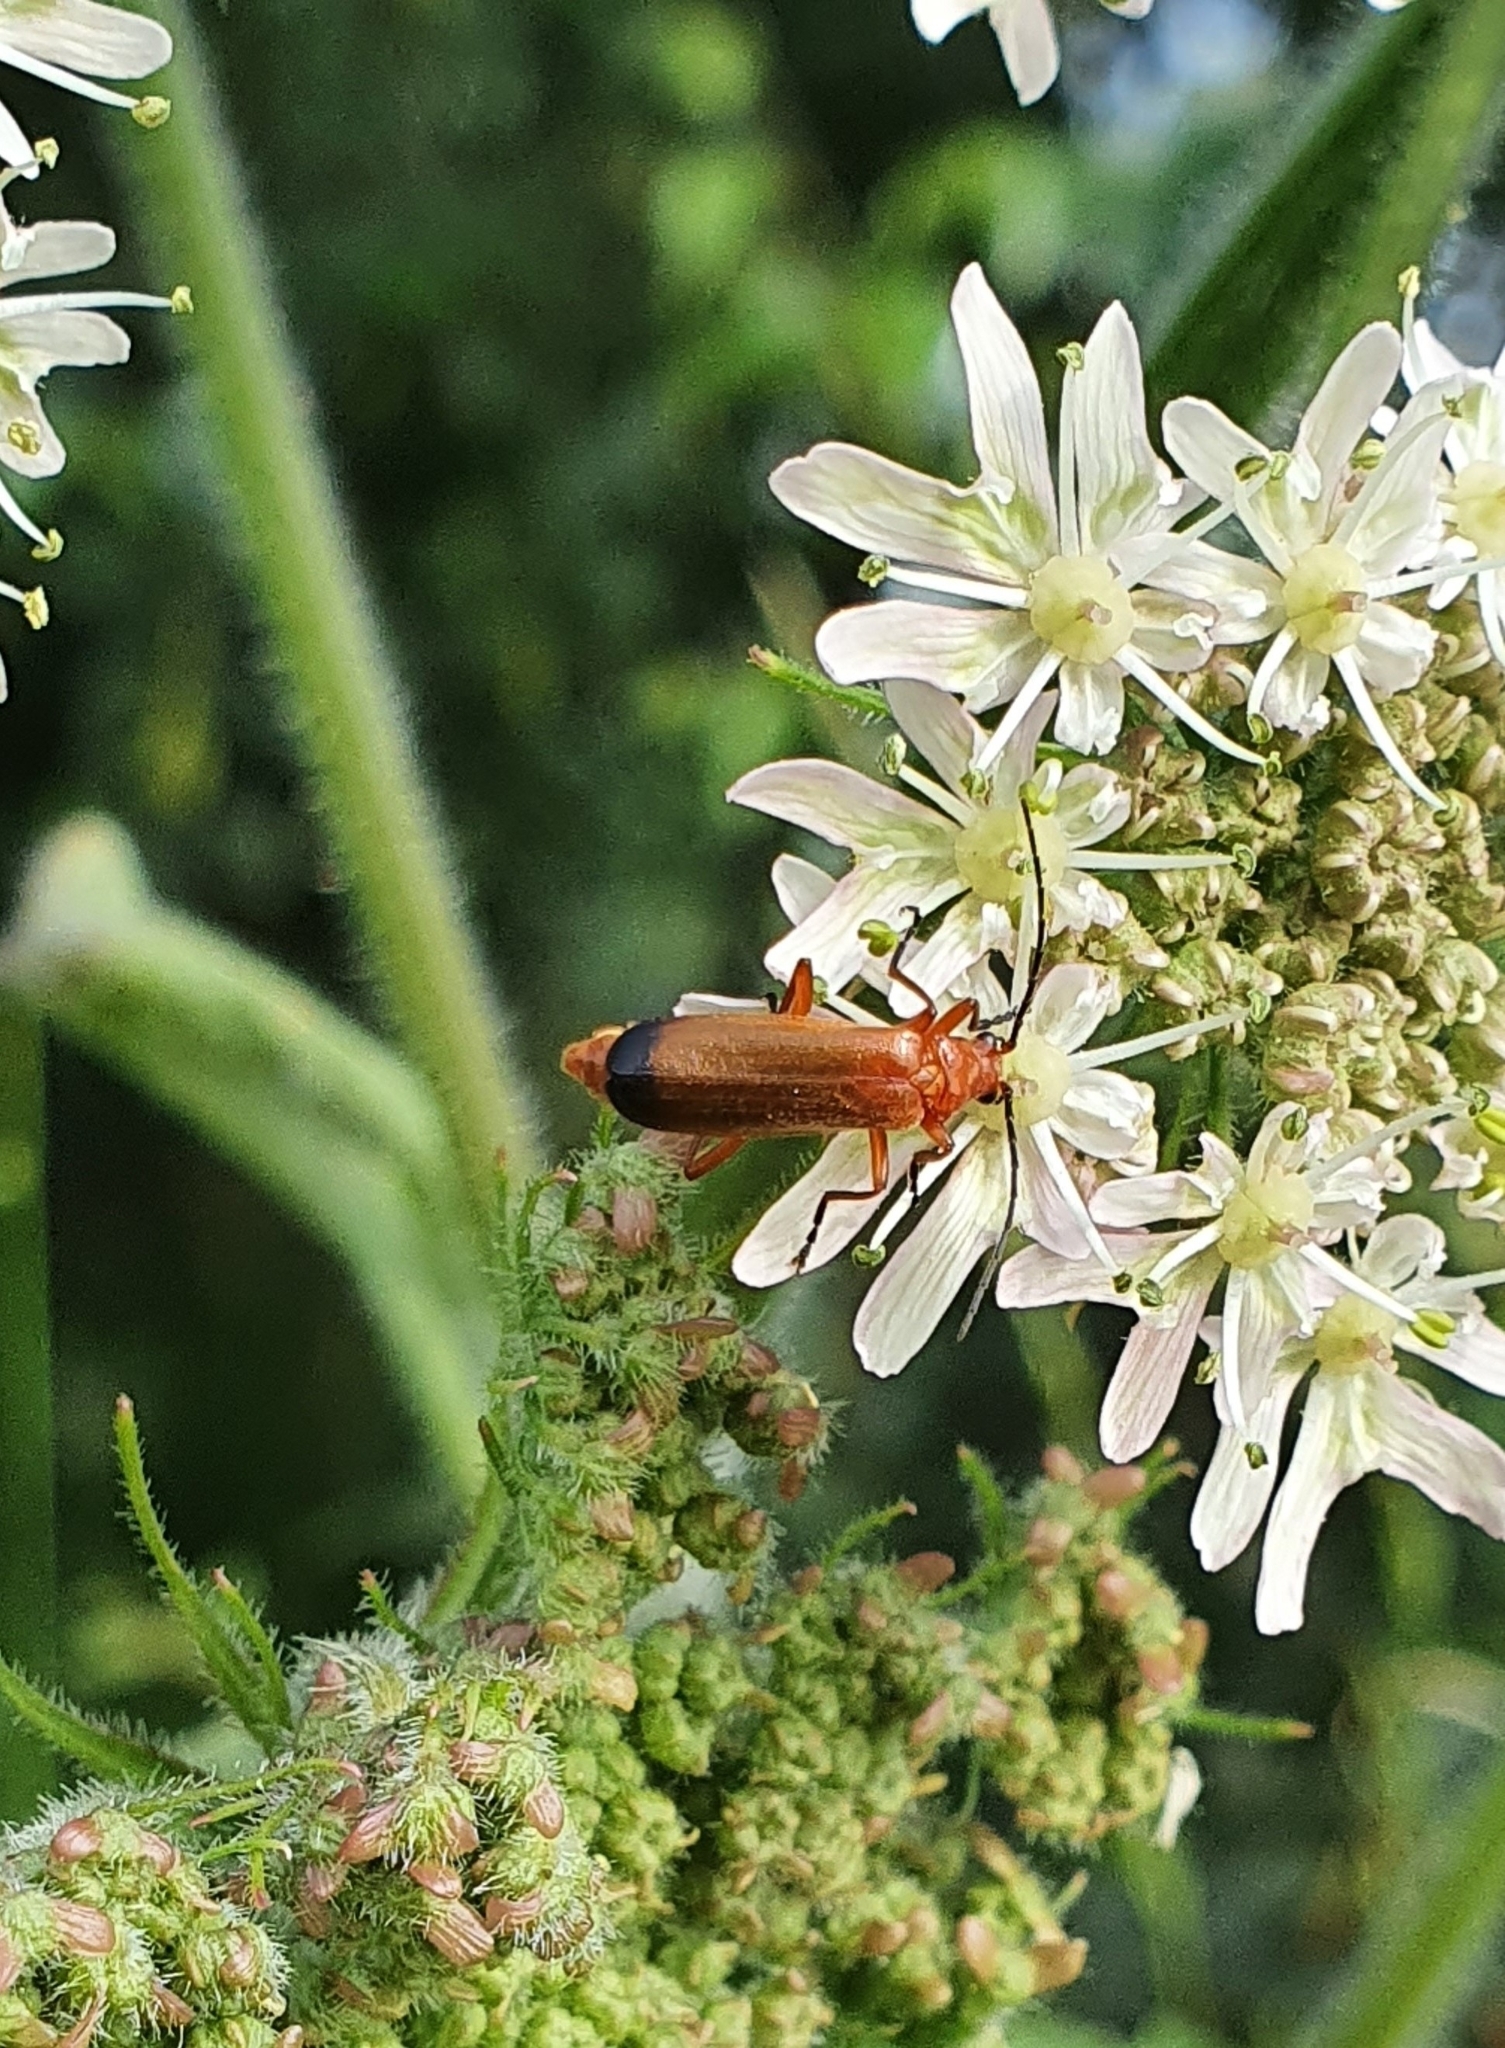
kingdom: Animalia
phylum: Arthropoda
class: Insecta
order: Coleoptera
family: Cantharidae
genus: Rhagonycha
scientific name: Rhagonycha fulva
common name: Common red soldier beetle
